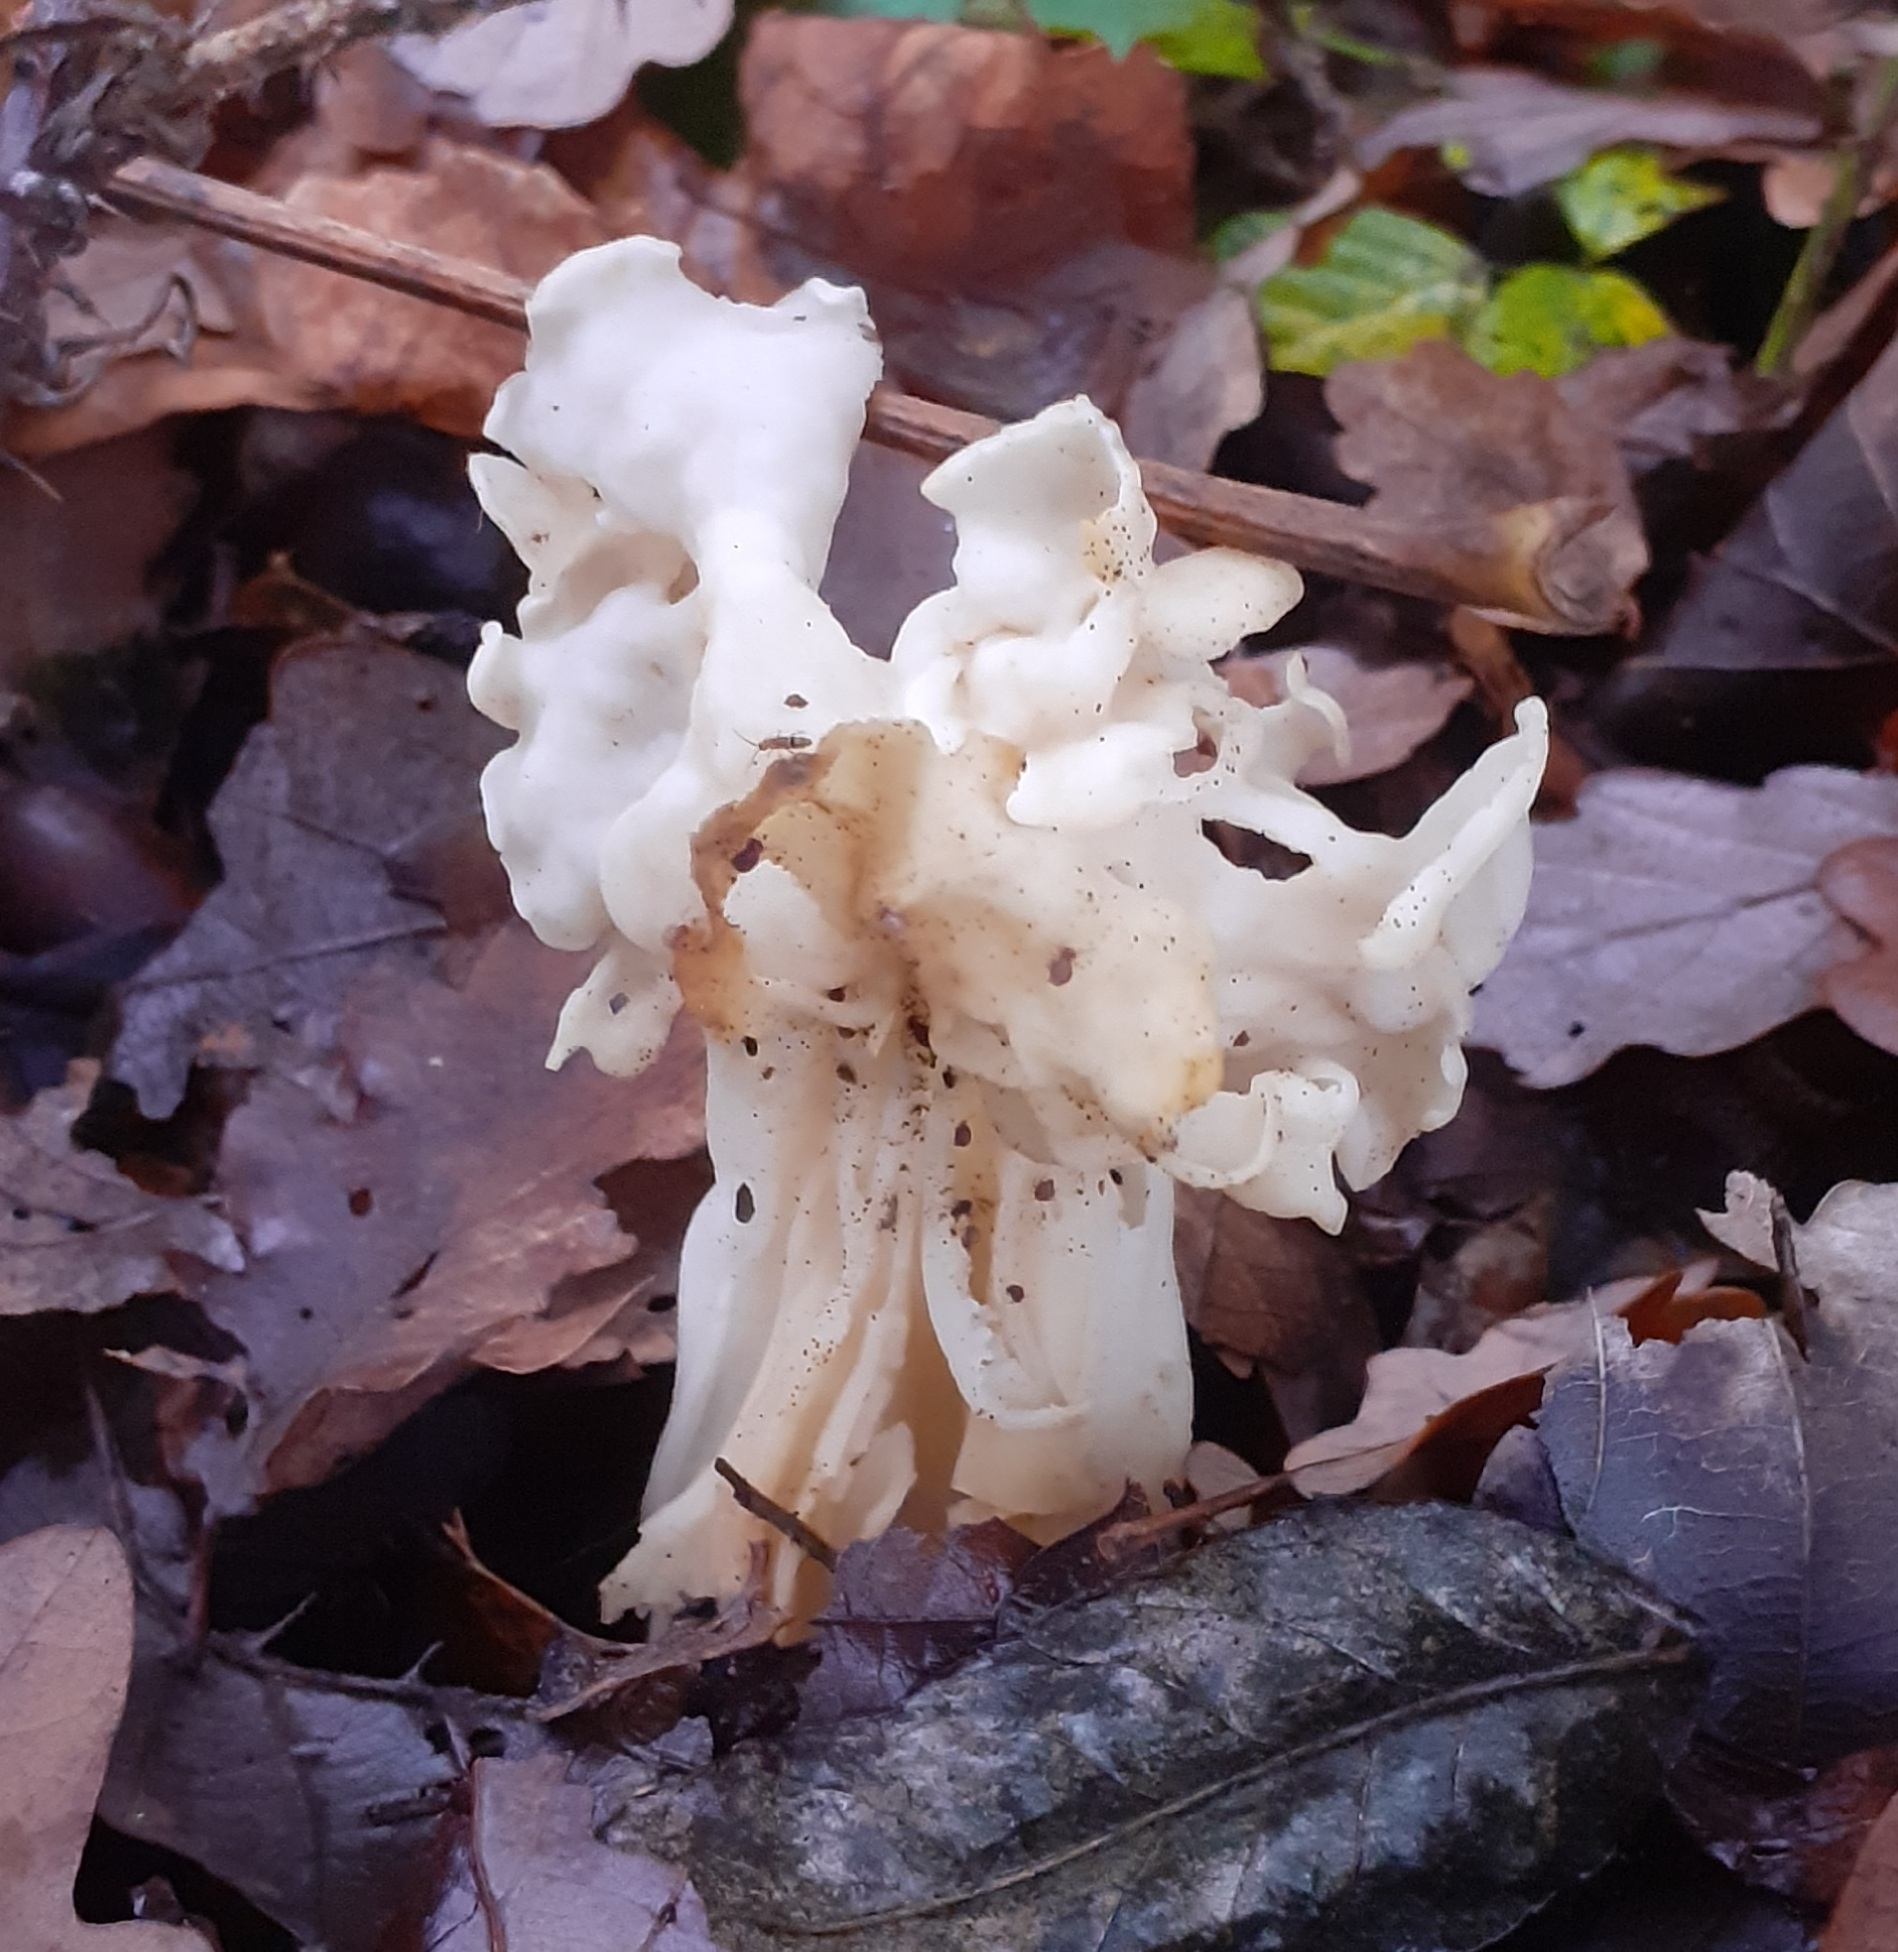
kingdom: Fungi
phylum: Ascomycota
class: Pezizomycetes
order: Pezizales
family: Helvellaceae
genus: Helvella
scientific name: Helvella crispa
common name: White saddle
